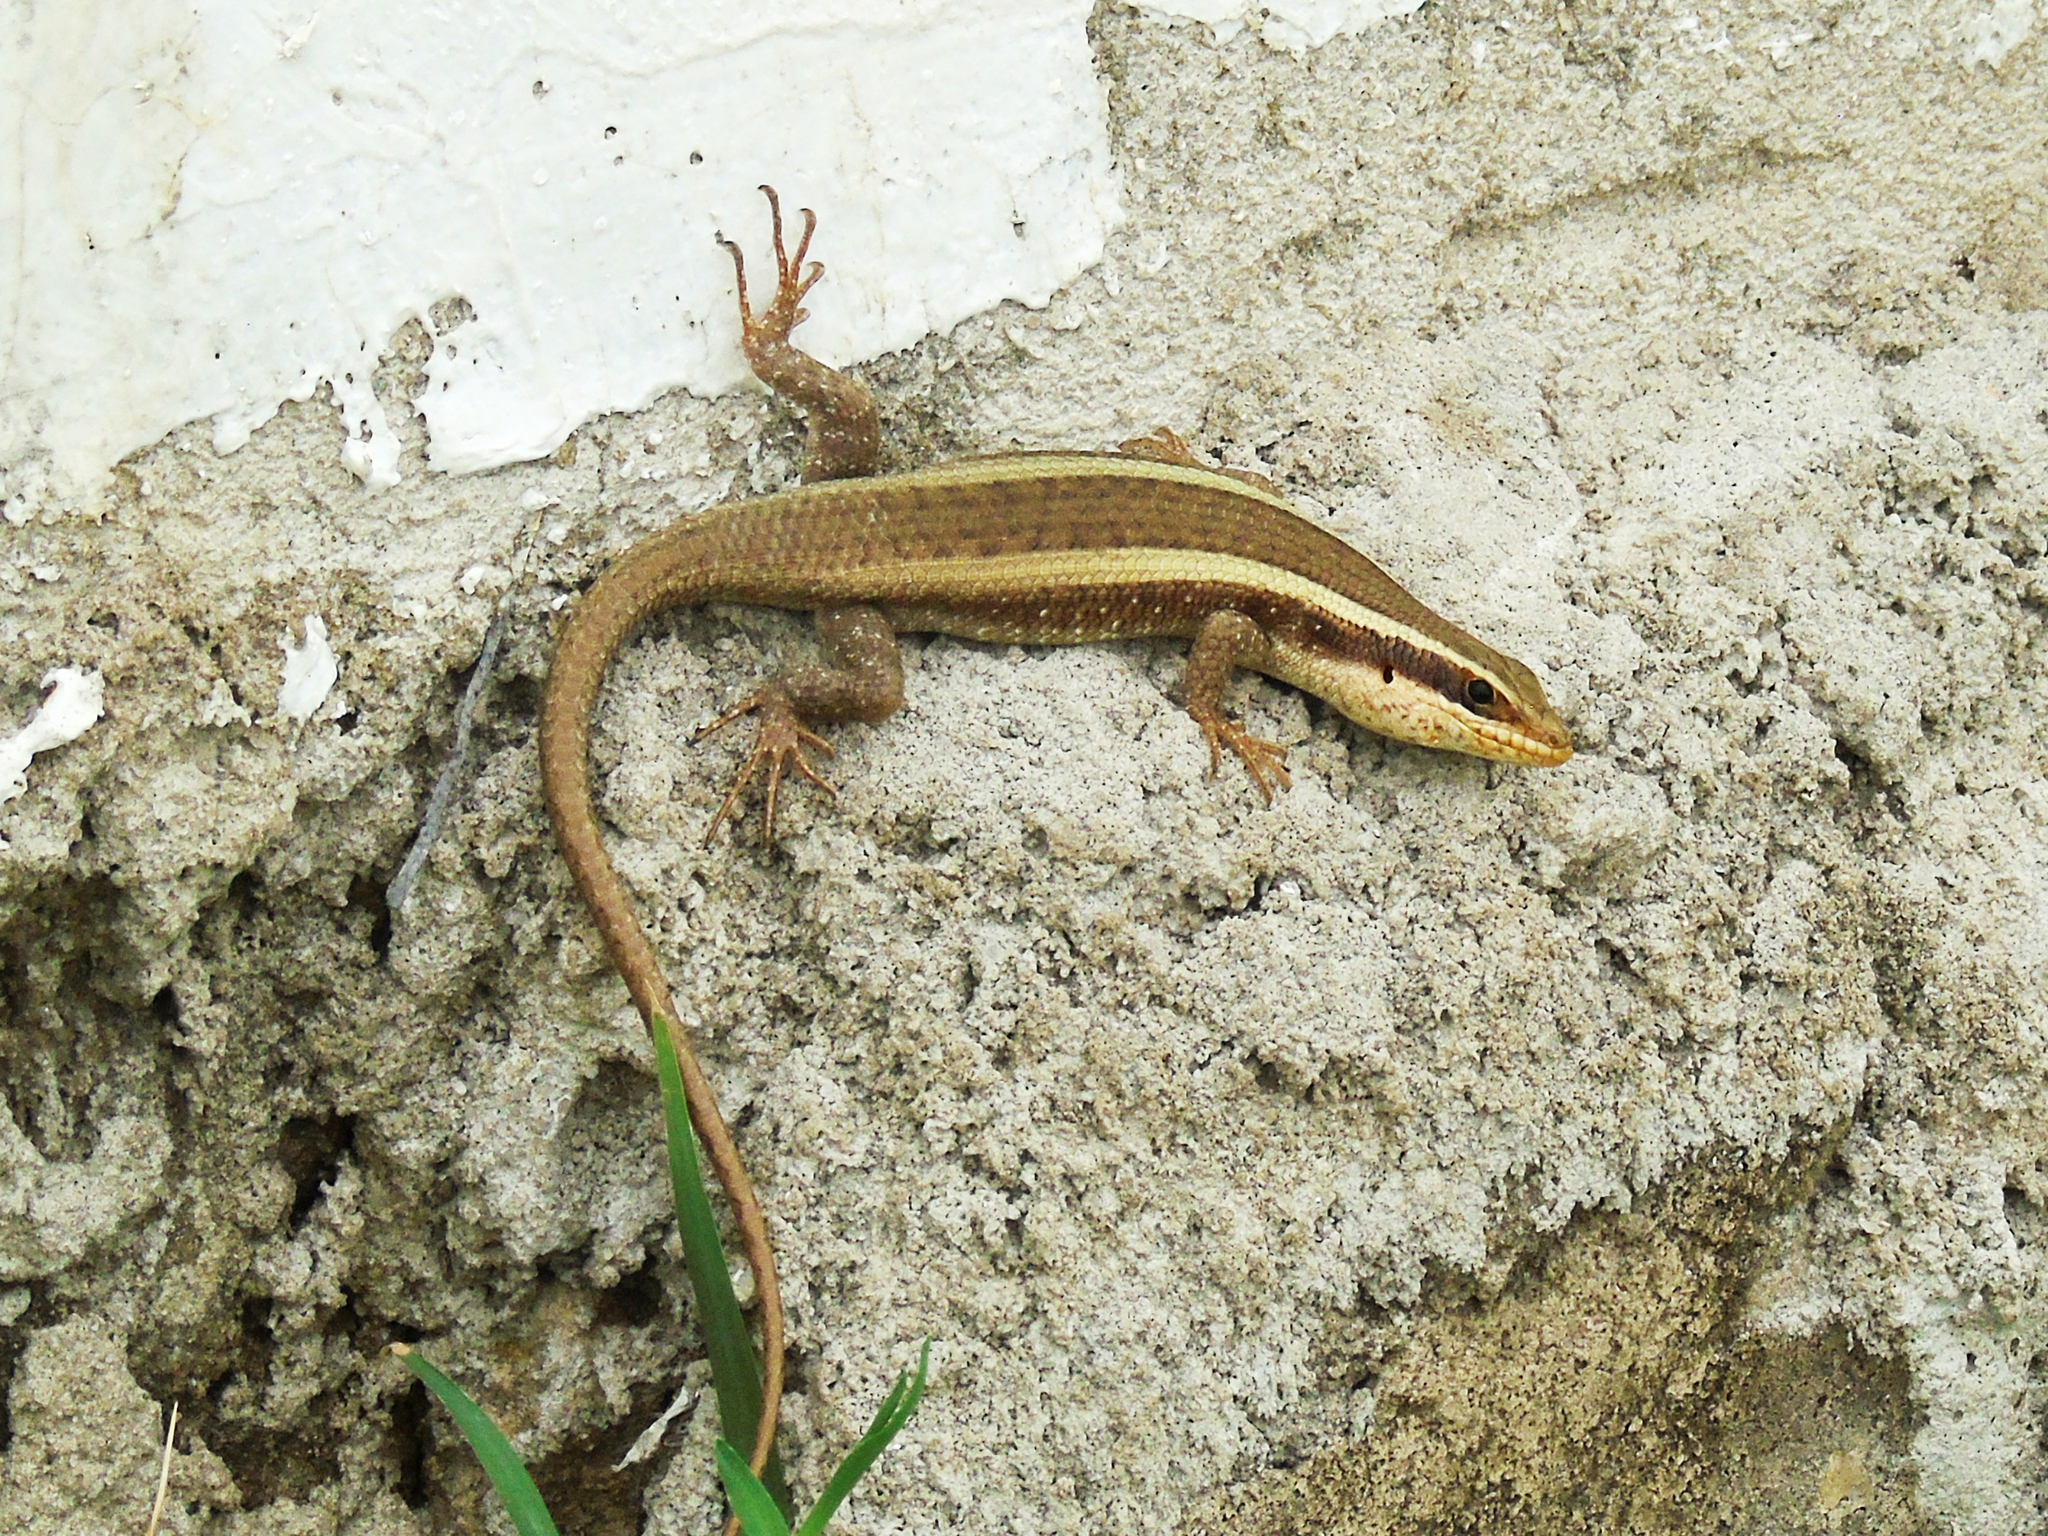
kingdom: Animalia
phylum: Chordata
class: Squamata
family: Scincidae
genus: Trachylepis
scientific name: Trachylepis striata
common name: African striped mabuya
